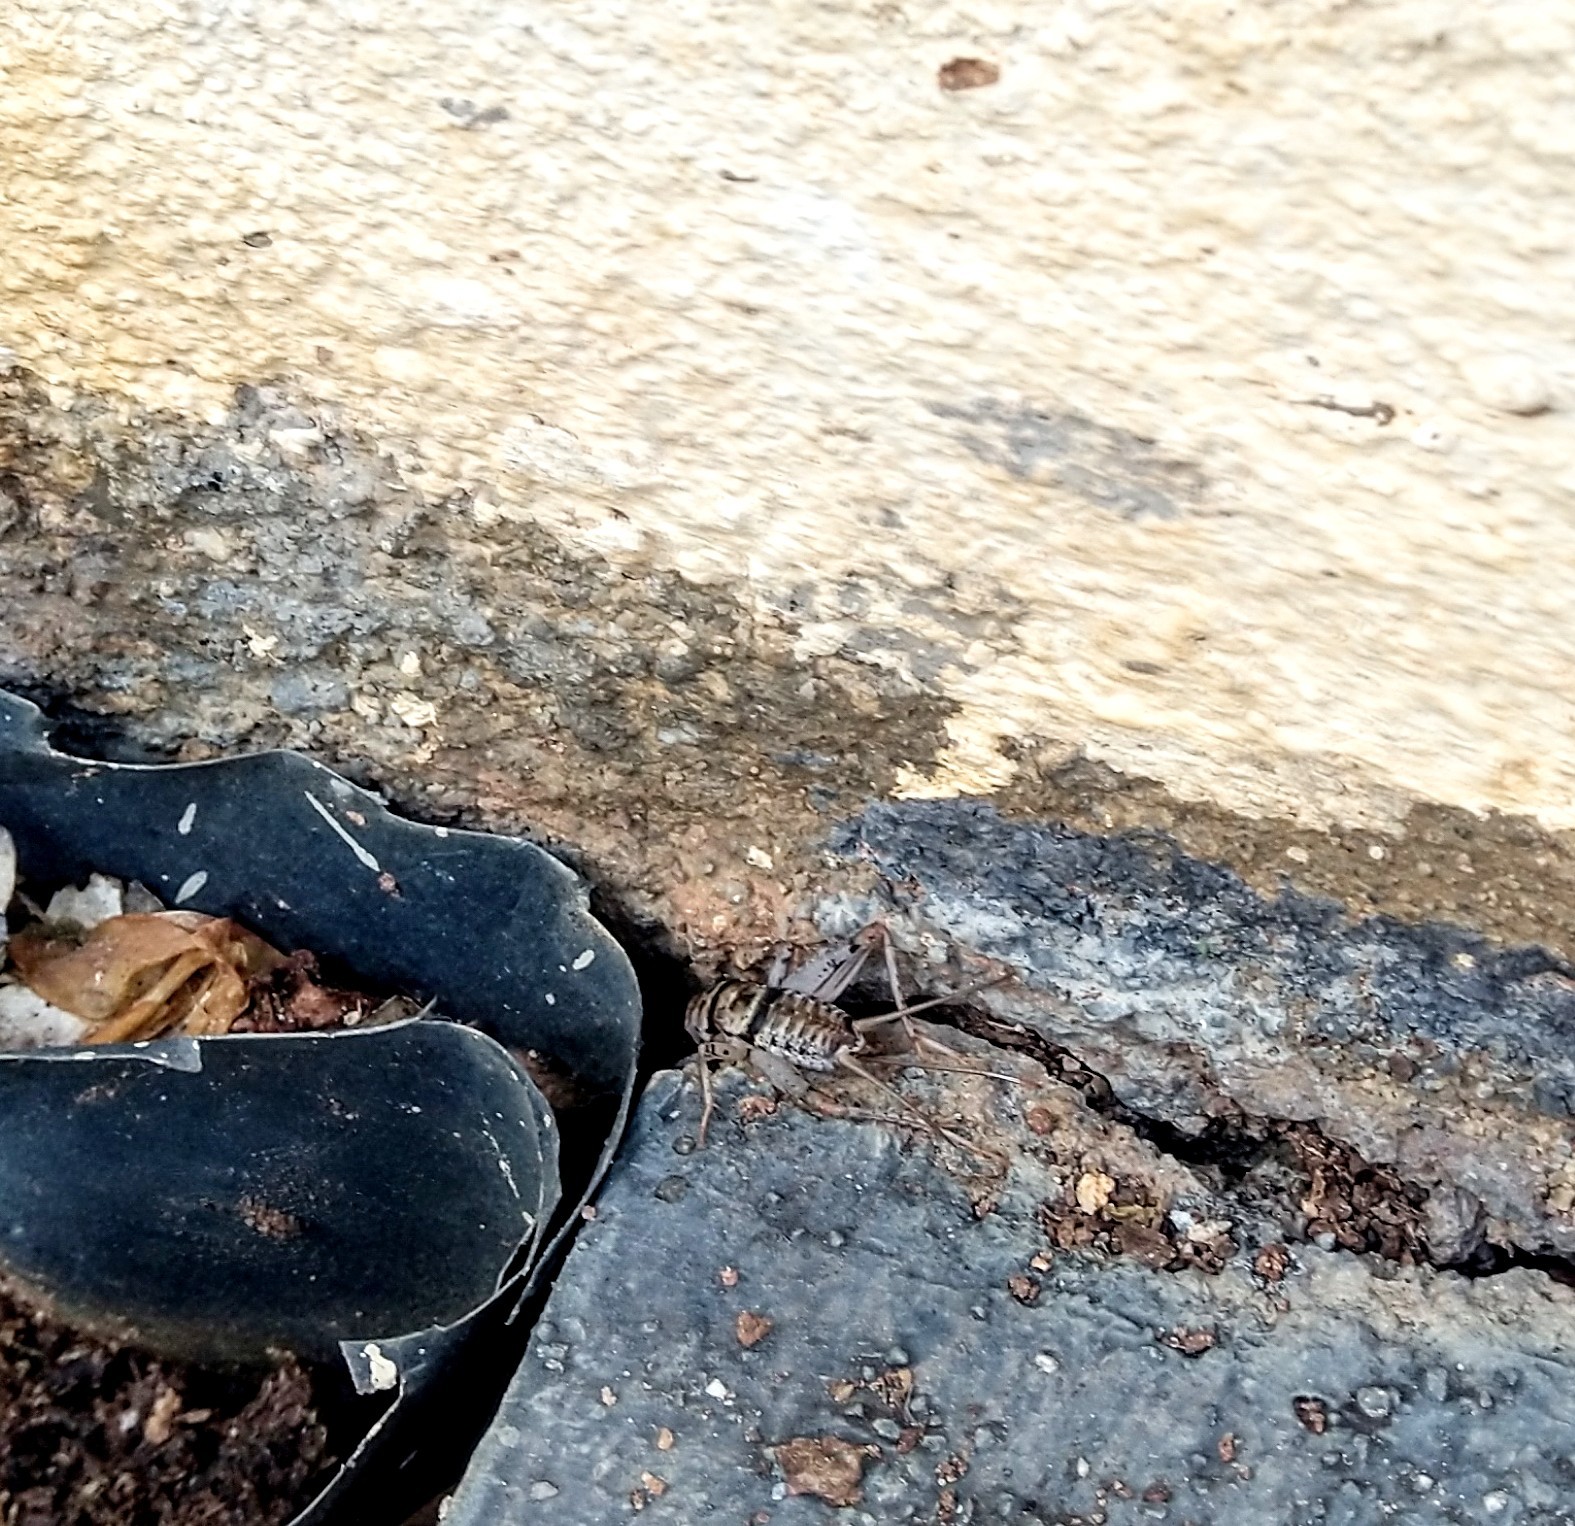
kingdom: Animalia
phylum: Arthropoda
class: Insecta
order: Orthoptera
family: Gryllidae
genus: Gryllodes
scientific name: Gryllodes sigillatus
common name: Tropical house cricket
